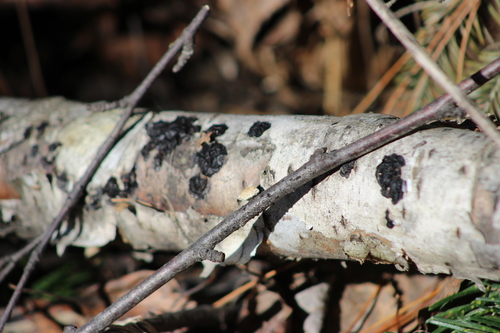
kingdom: Fungi
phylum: Basidiomycota
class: Agaricomycetes
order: Auriculariales
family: Auriculariaceae
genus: Exidia
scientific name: Exidia glandulosa
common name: Witches' butter
